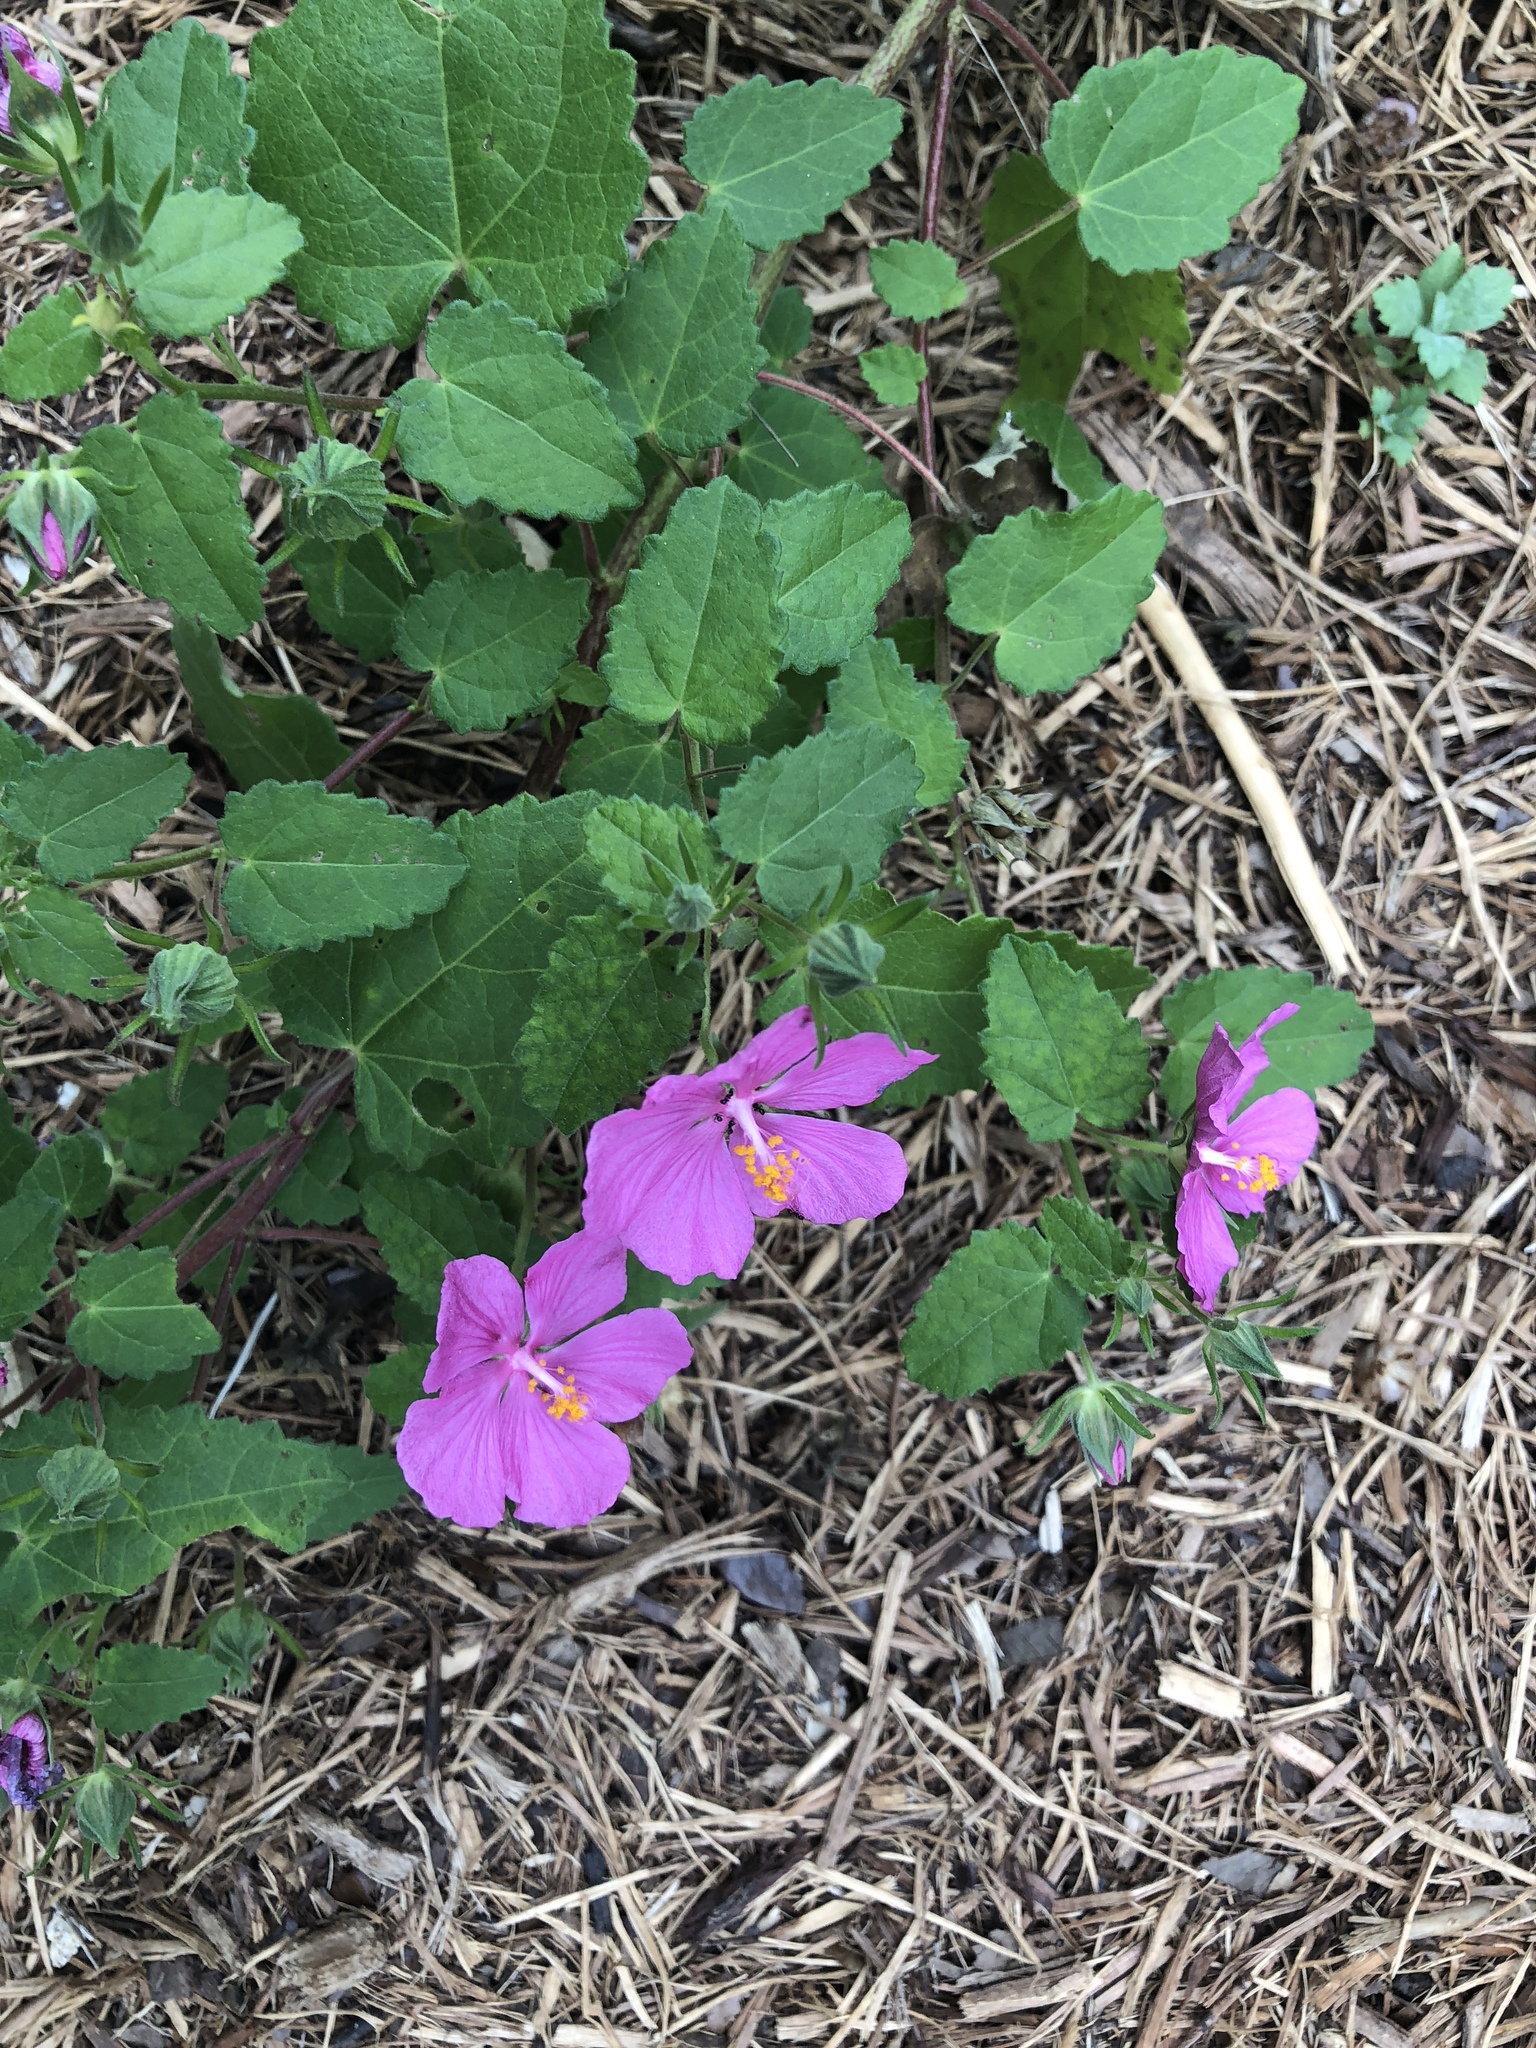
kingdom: Plantae
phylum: Tracheophyta
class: Magnoliopsida
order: Malvales
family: Malvaceae
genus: Pavonia
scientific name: Pavonia lasiopetala
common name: Texas swamp-mallow
